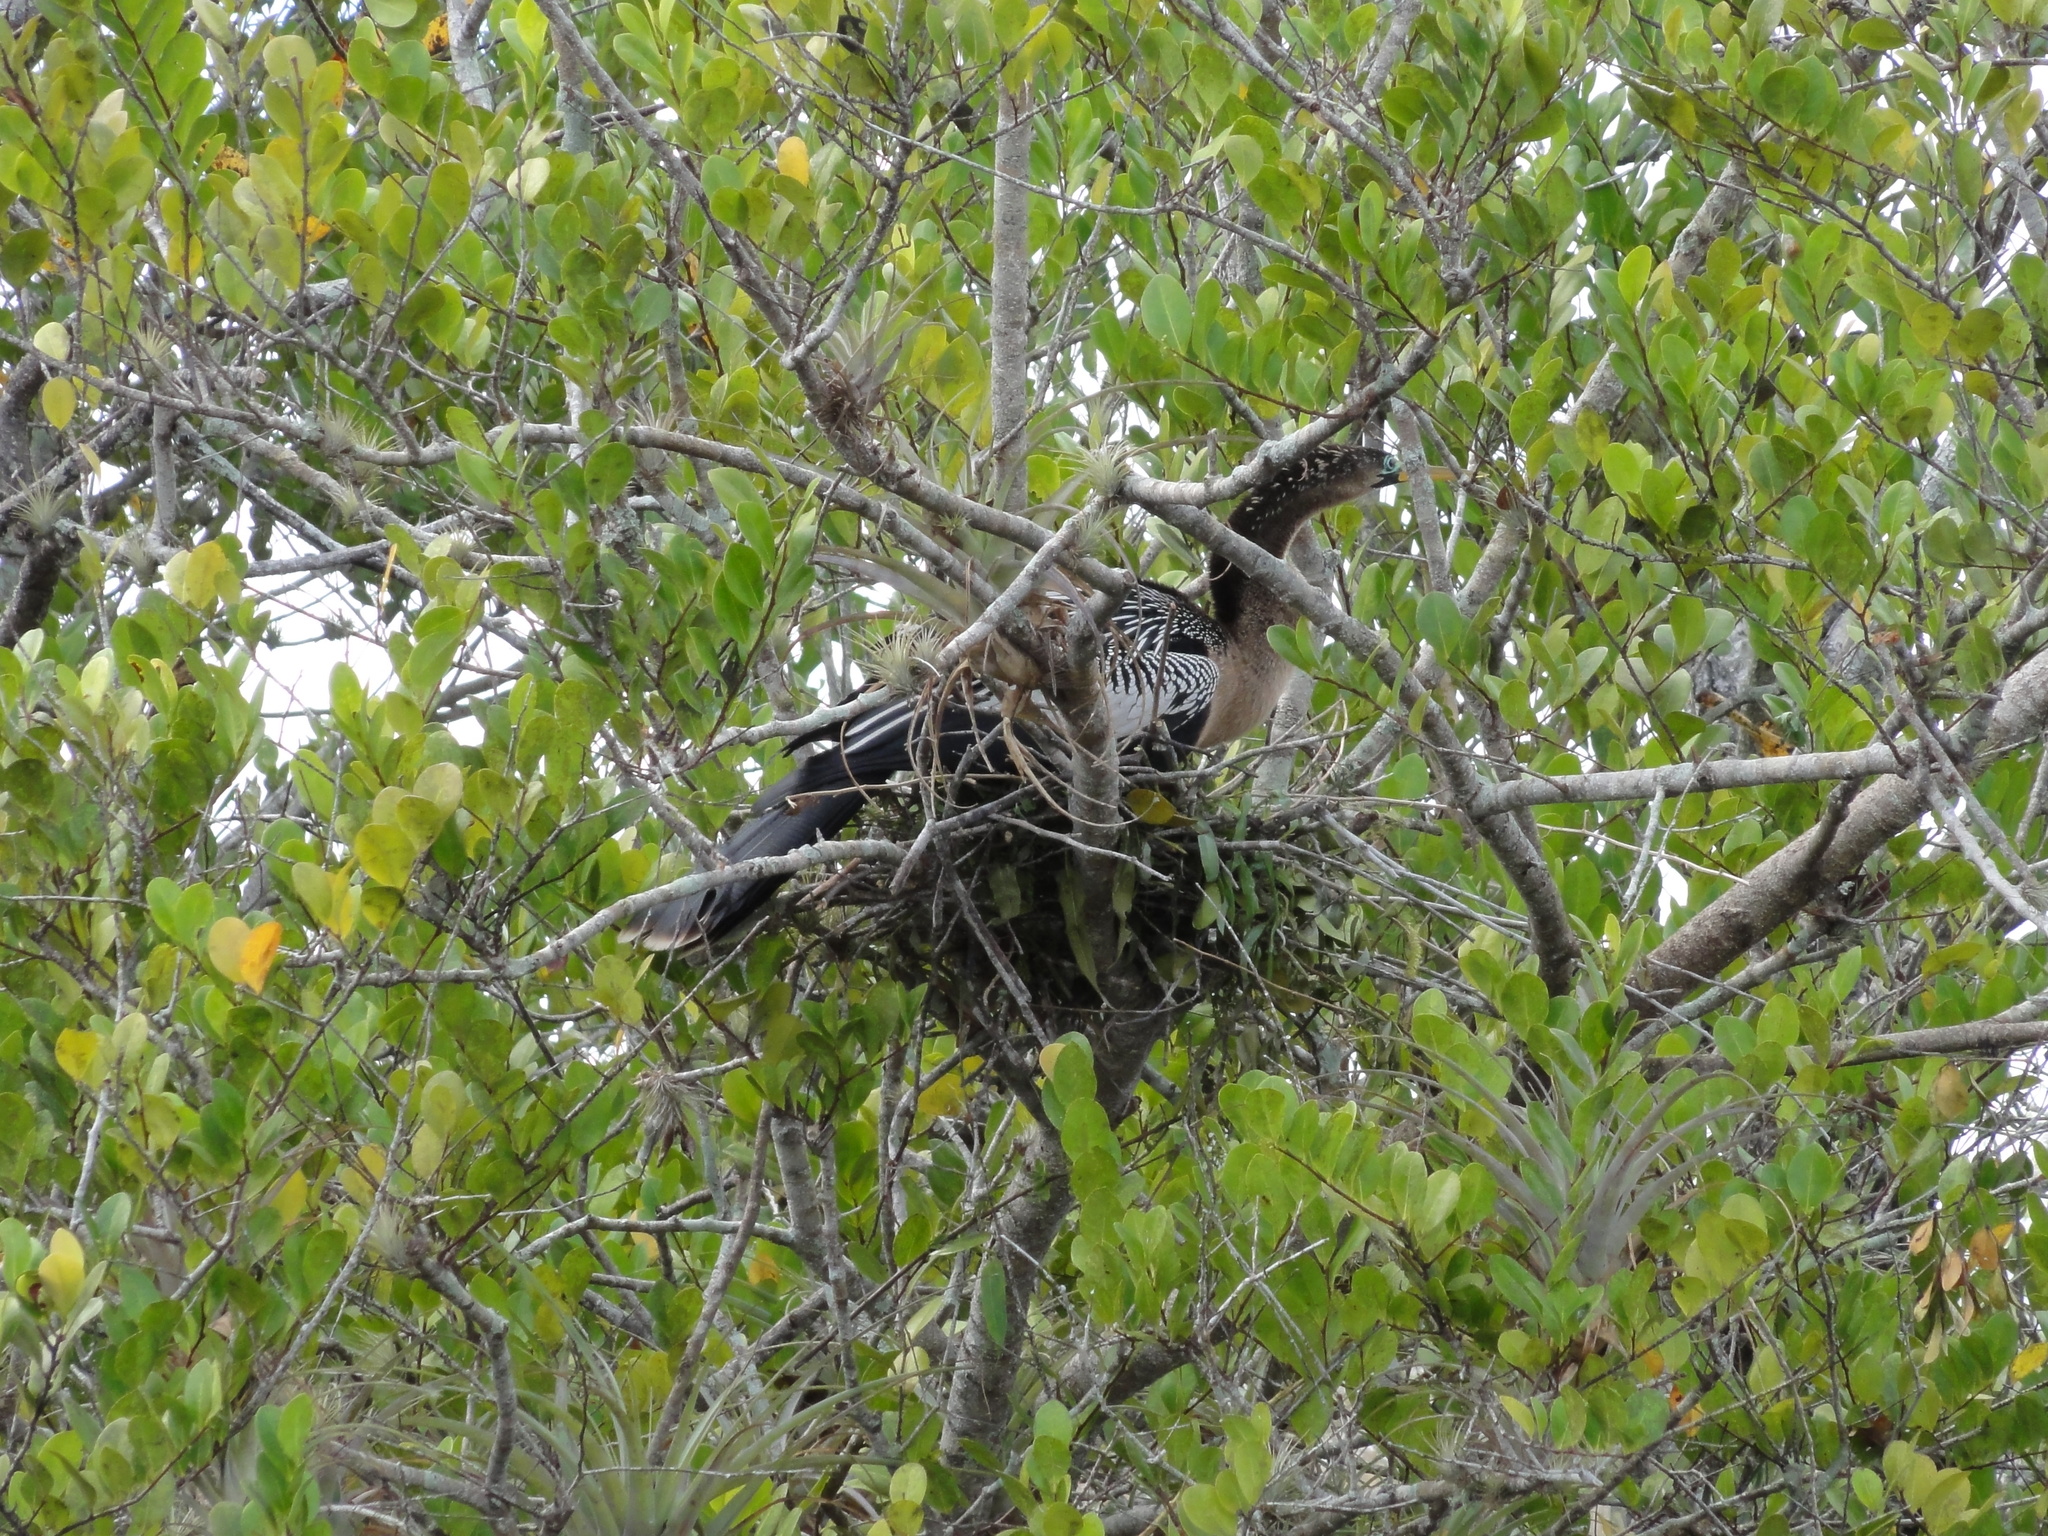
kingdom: Animalia
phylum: Chordata
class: Aves
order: Suliformes
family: Anhingidae
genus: Anhinga
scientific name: Anhinga anhinga
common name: Anhinga
